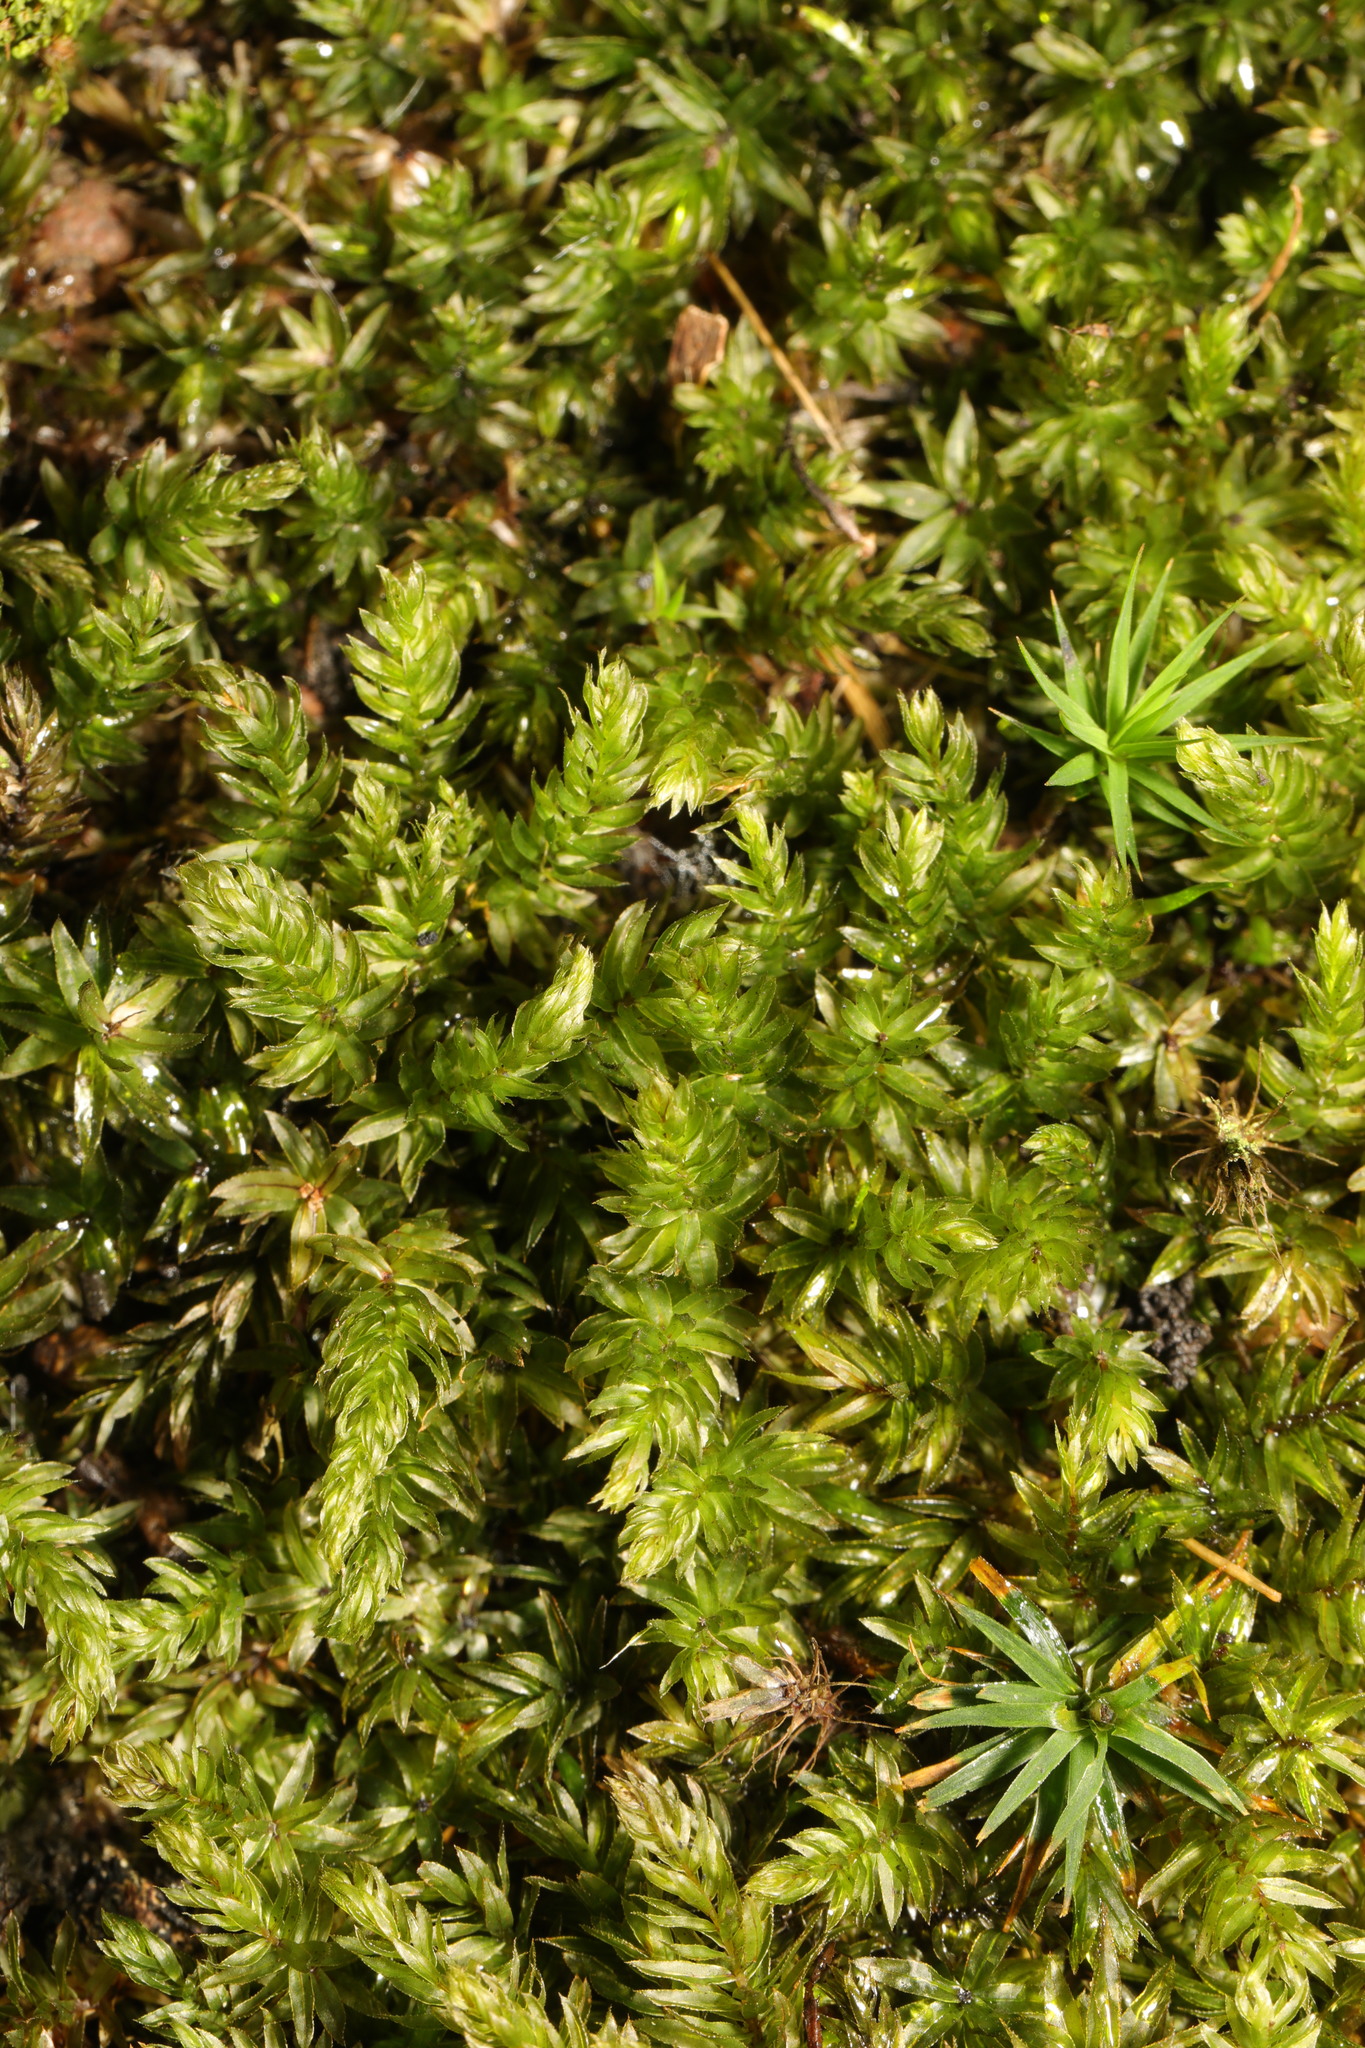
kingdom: Plantae
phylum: Bryophyta
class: Bryopsida
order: Bryales
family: Mniaceae
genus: Mnium
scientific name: Mnium hornum
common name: Swan's-neck leafy moss
